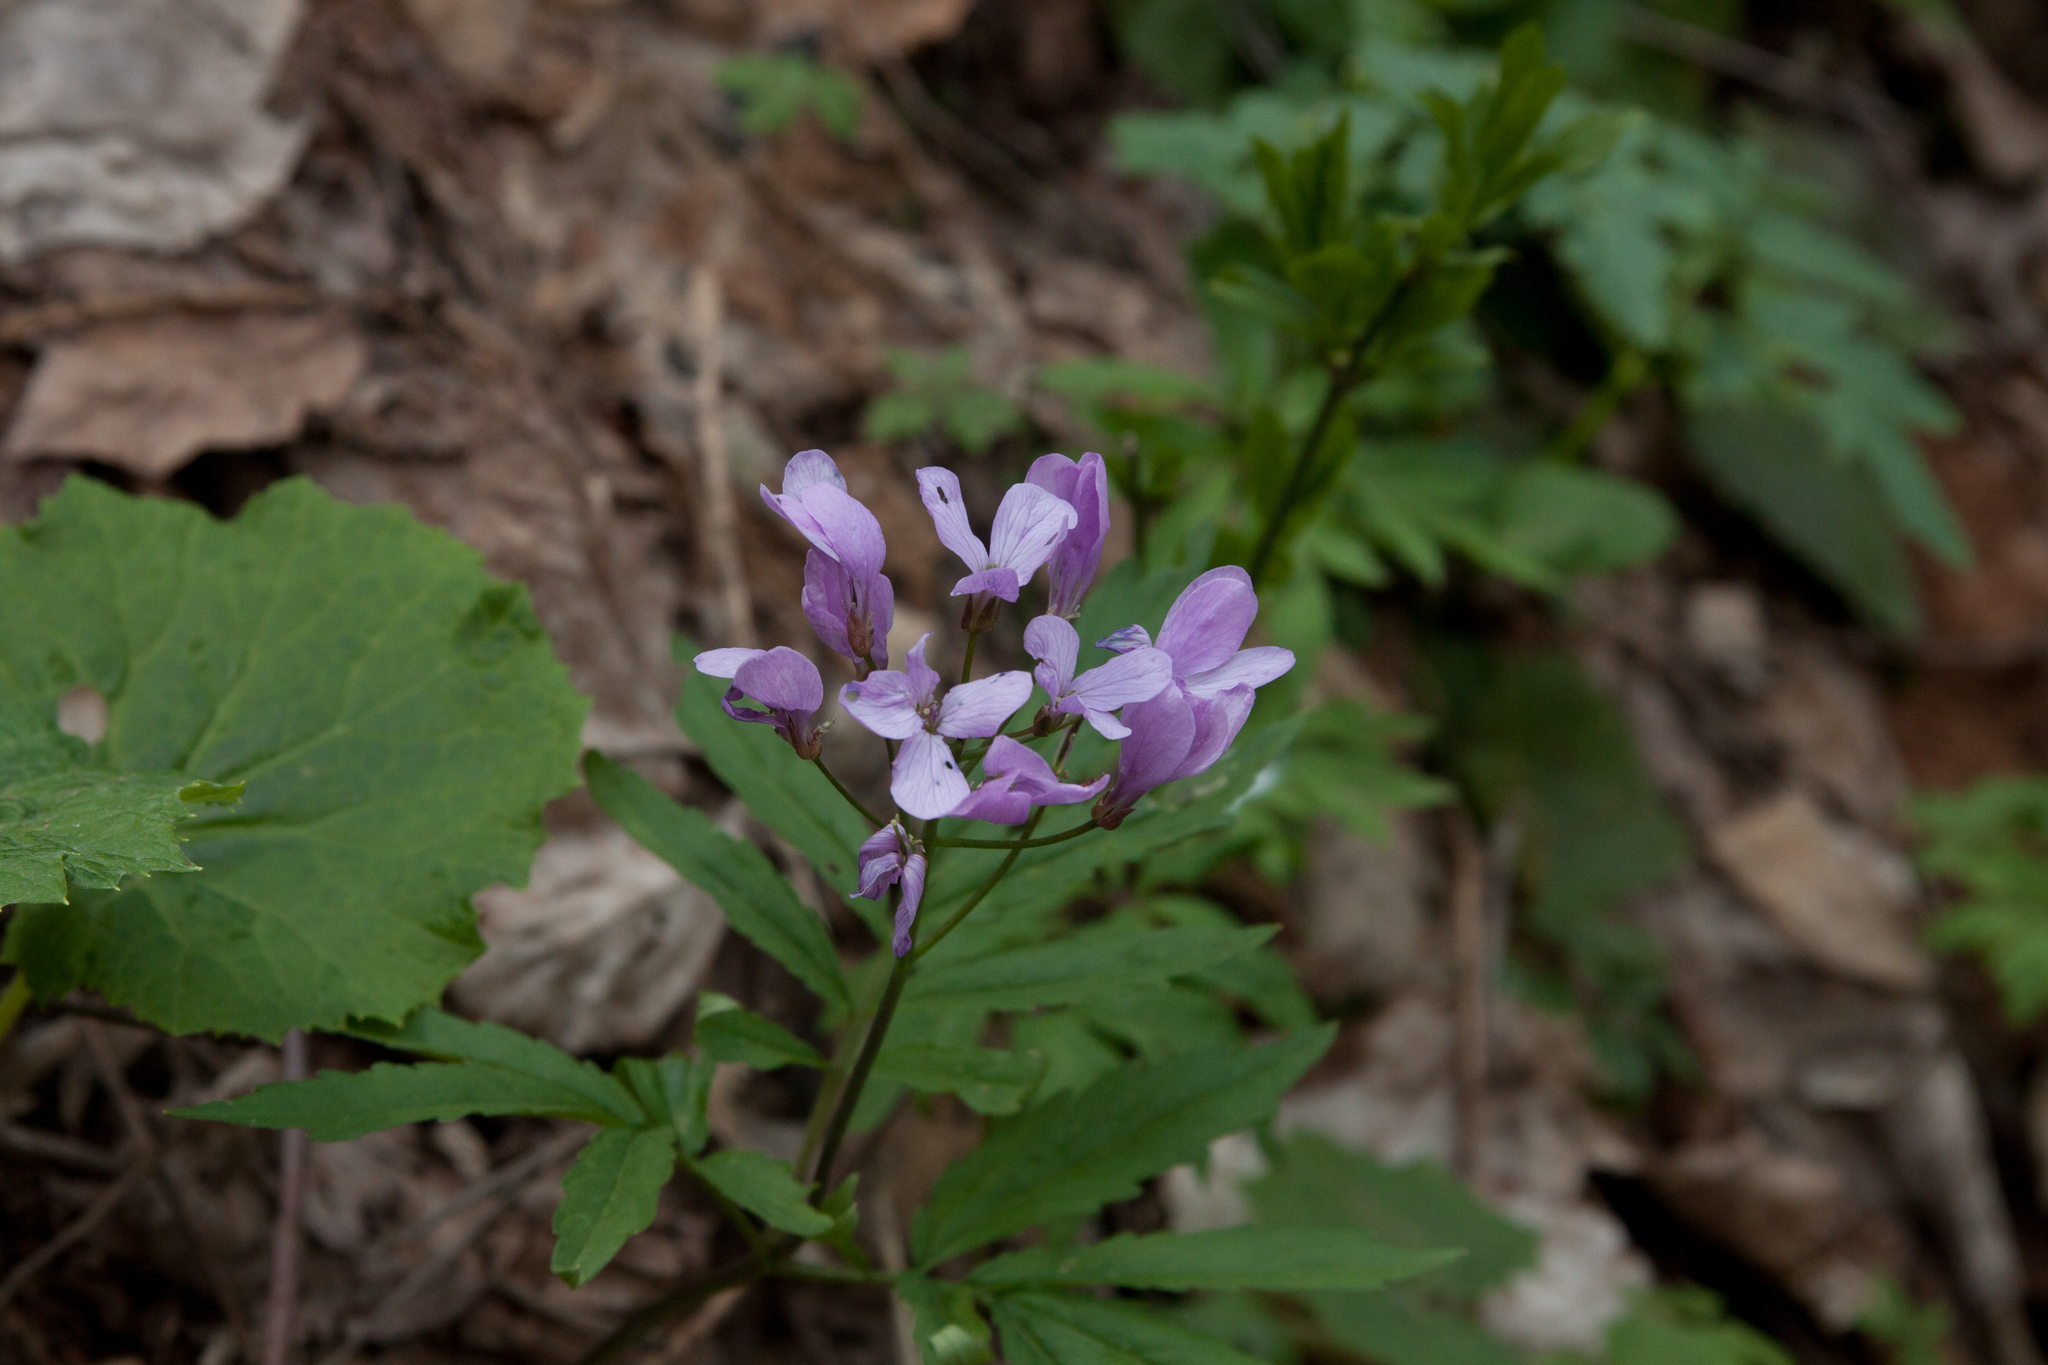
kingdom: Plantae
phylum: Tracheophyta
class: Magnoliopsida
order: Brassicales
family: Brassicaceae
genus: Cardamine
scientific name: Cardamine quinquefolia
